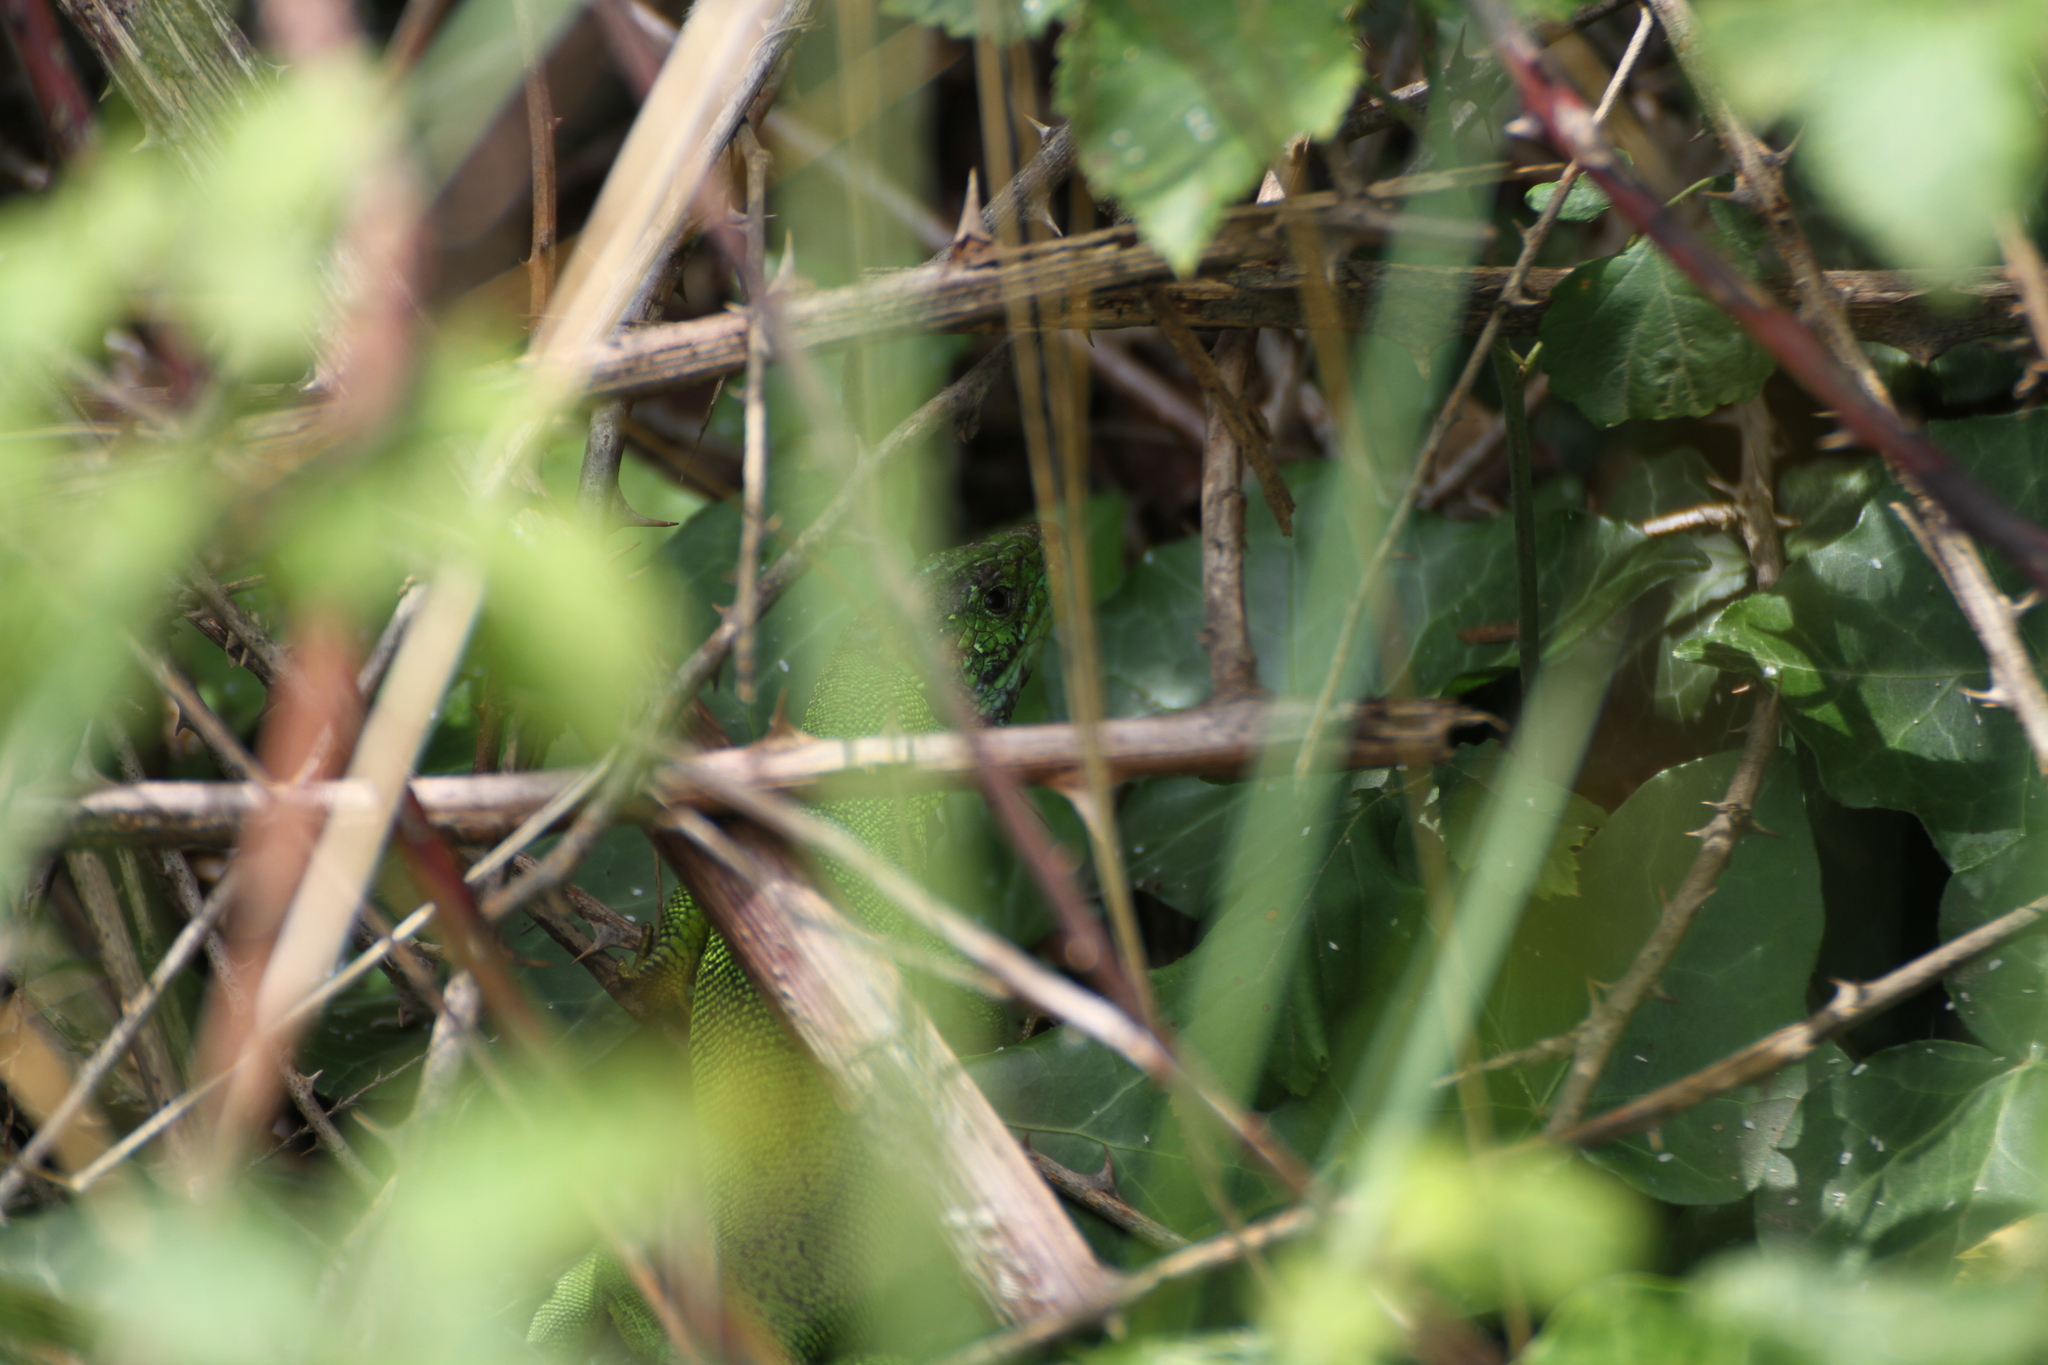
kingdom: Animalia
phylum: Chordata
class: Squamata
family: Lacertidae
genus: Lacerta
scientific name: Lacerta bilineata
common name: Western green lizard
